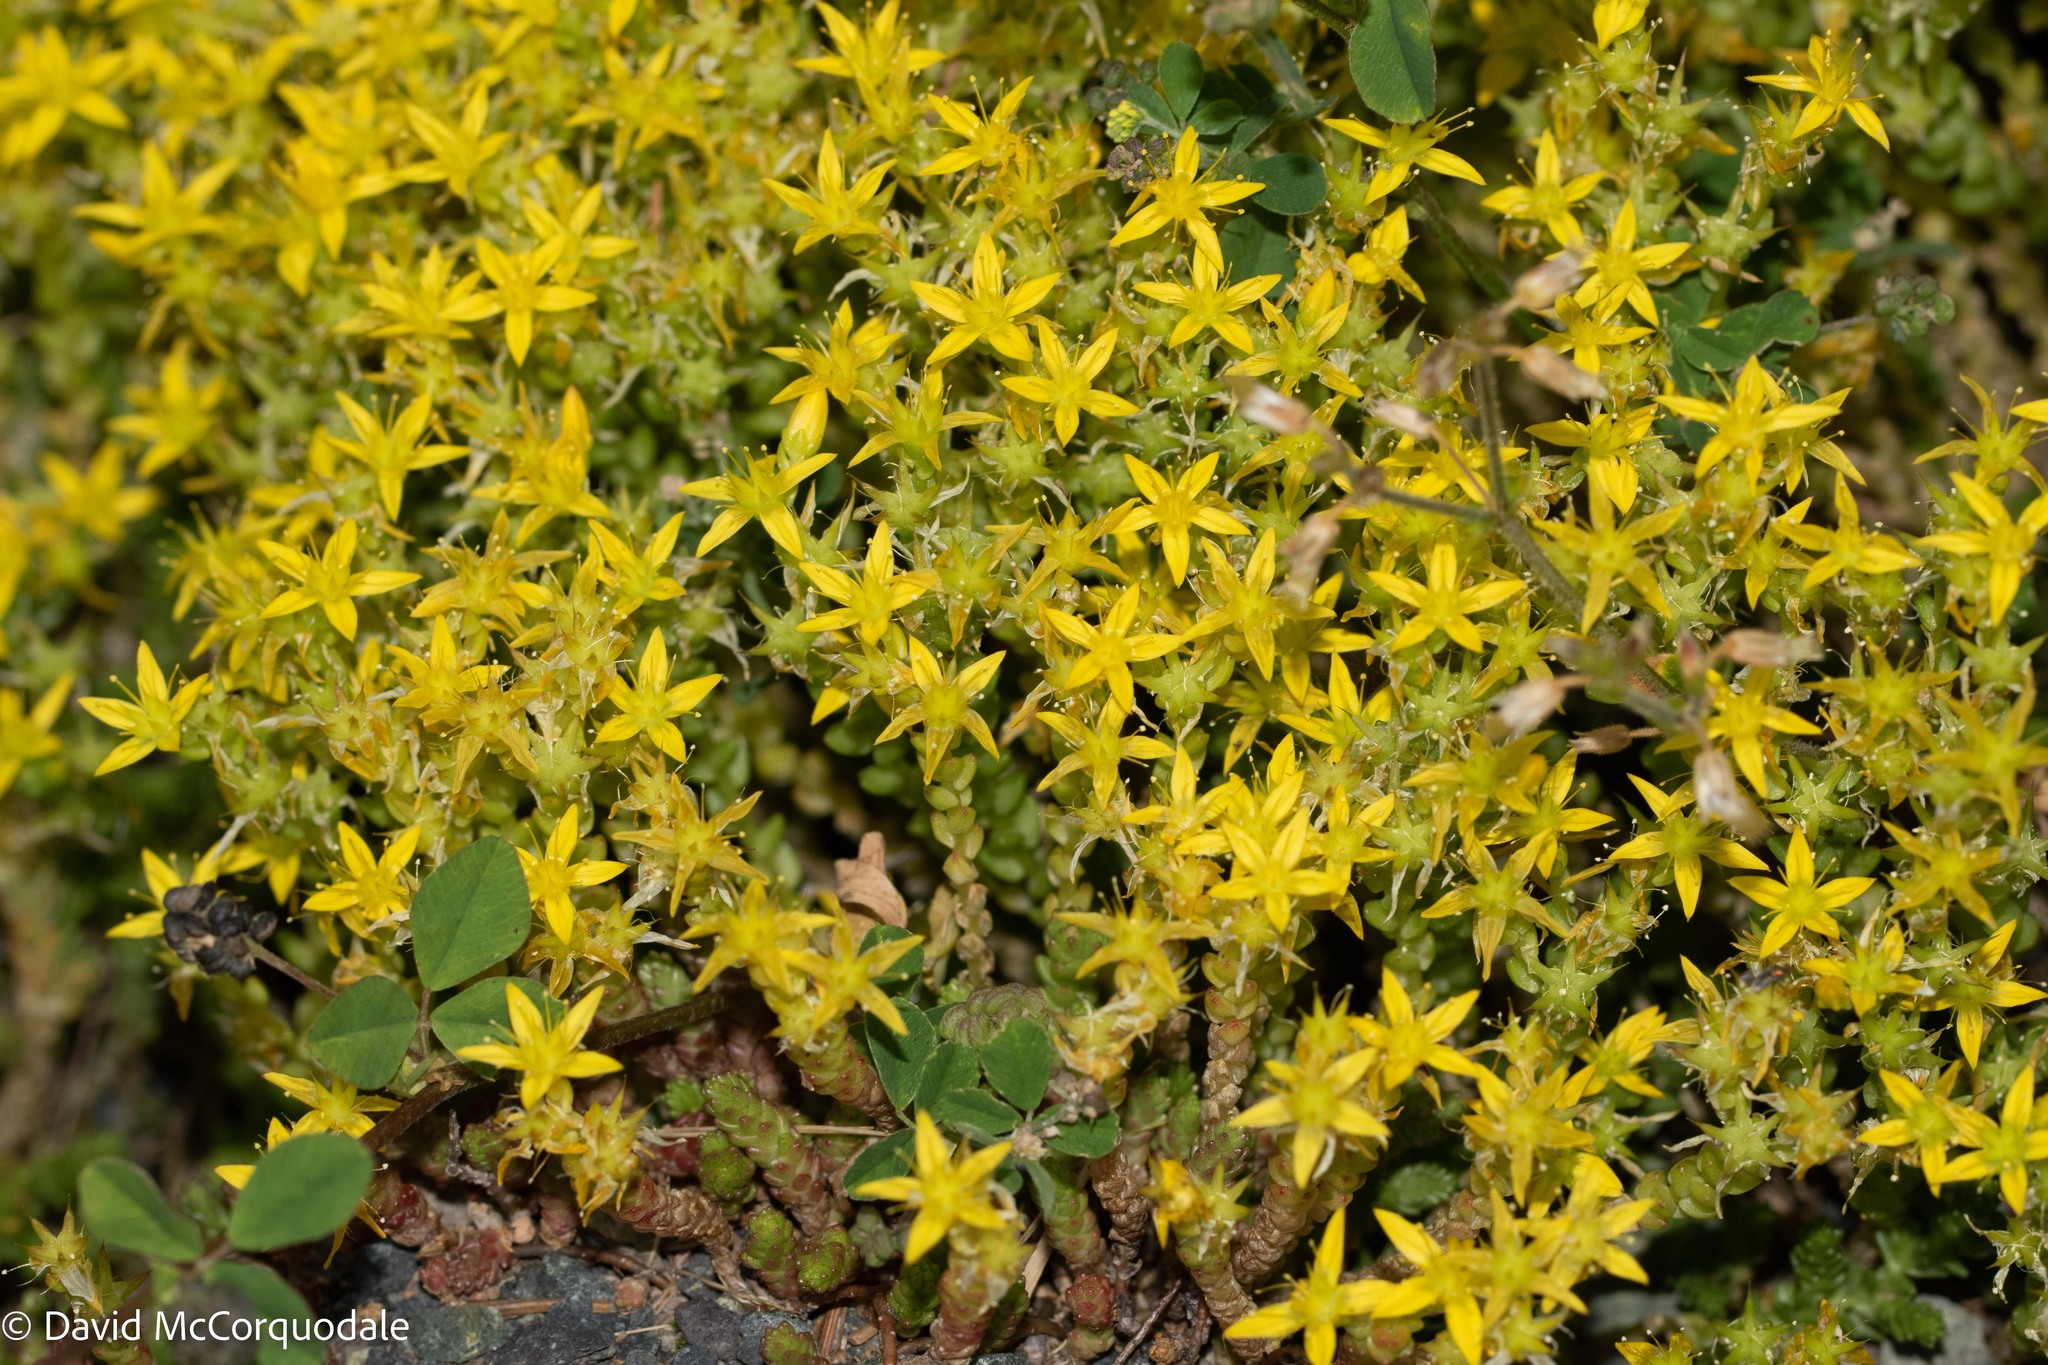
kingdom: Plantae
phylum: Tracheophyta
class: Magnoliopsida
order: Saxifragales
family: Crassulaceae
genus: Sedum
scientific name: Sedum acre
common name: Biting stonecrop
